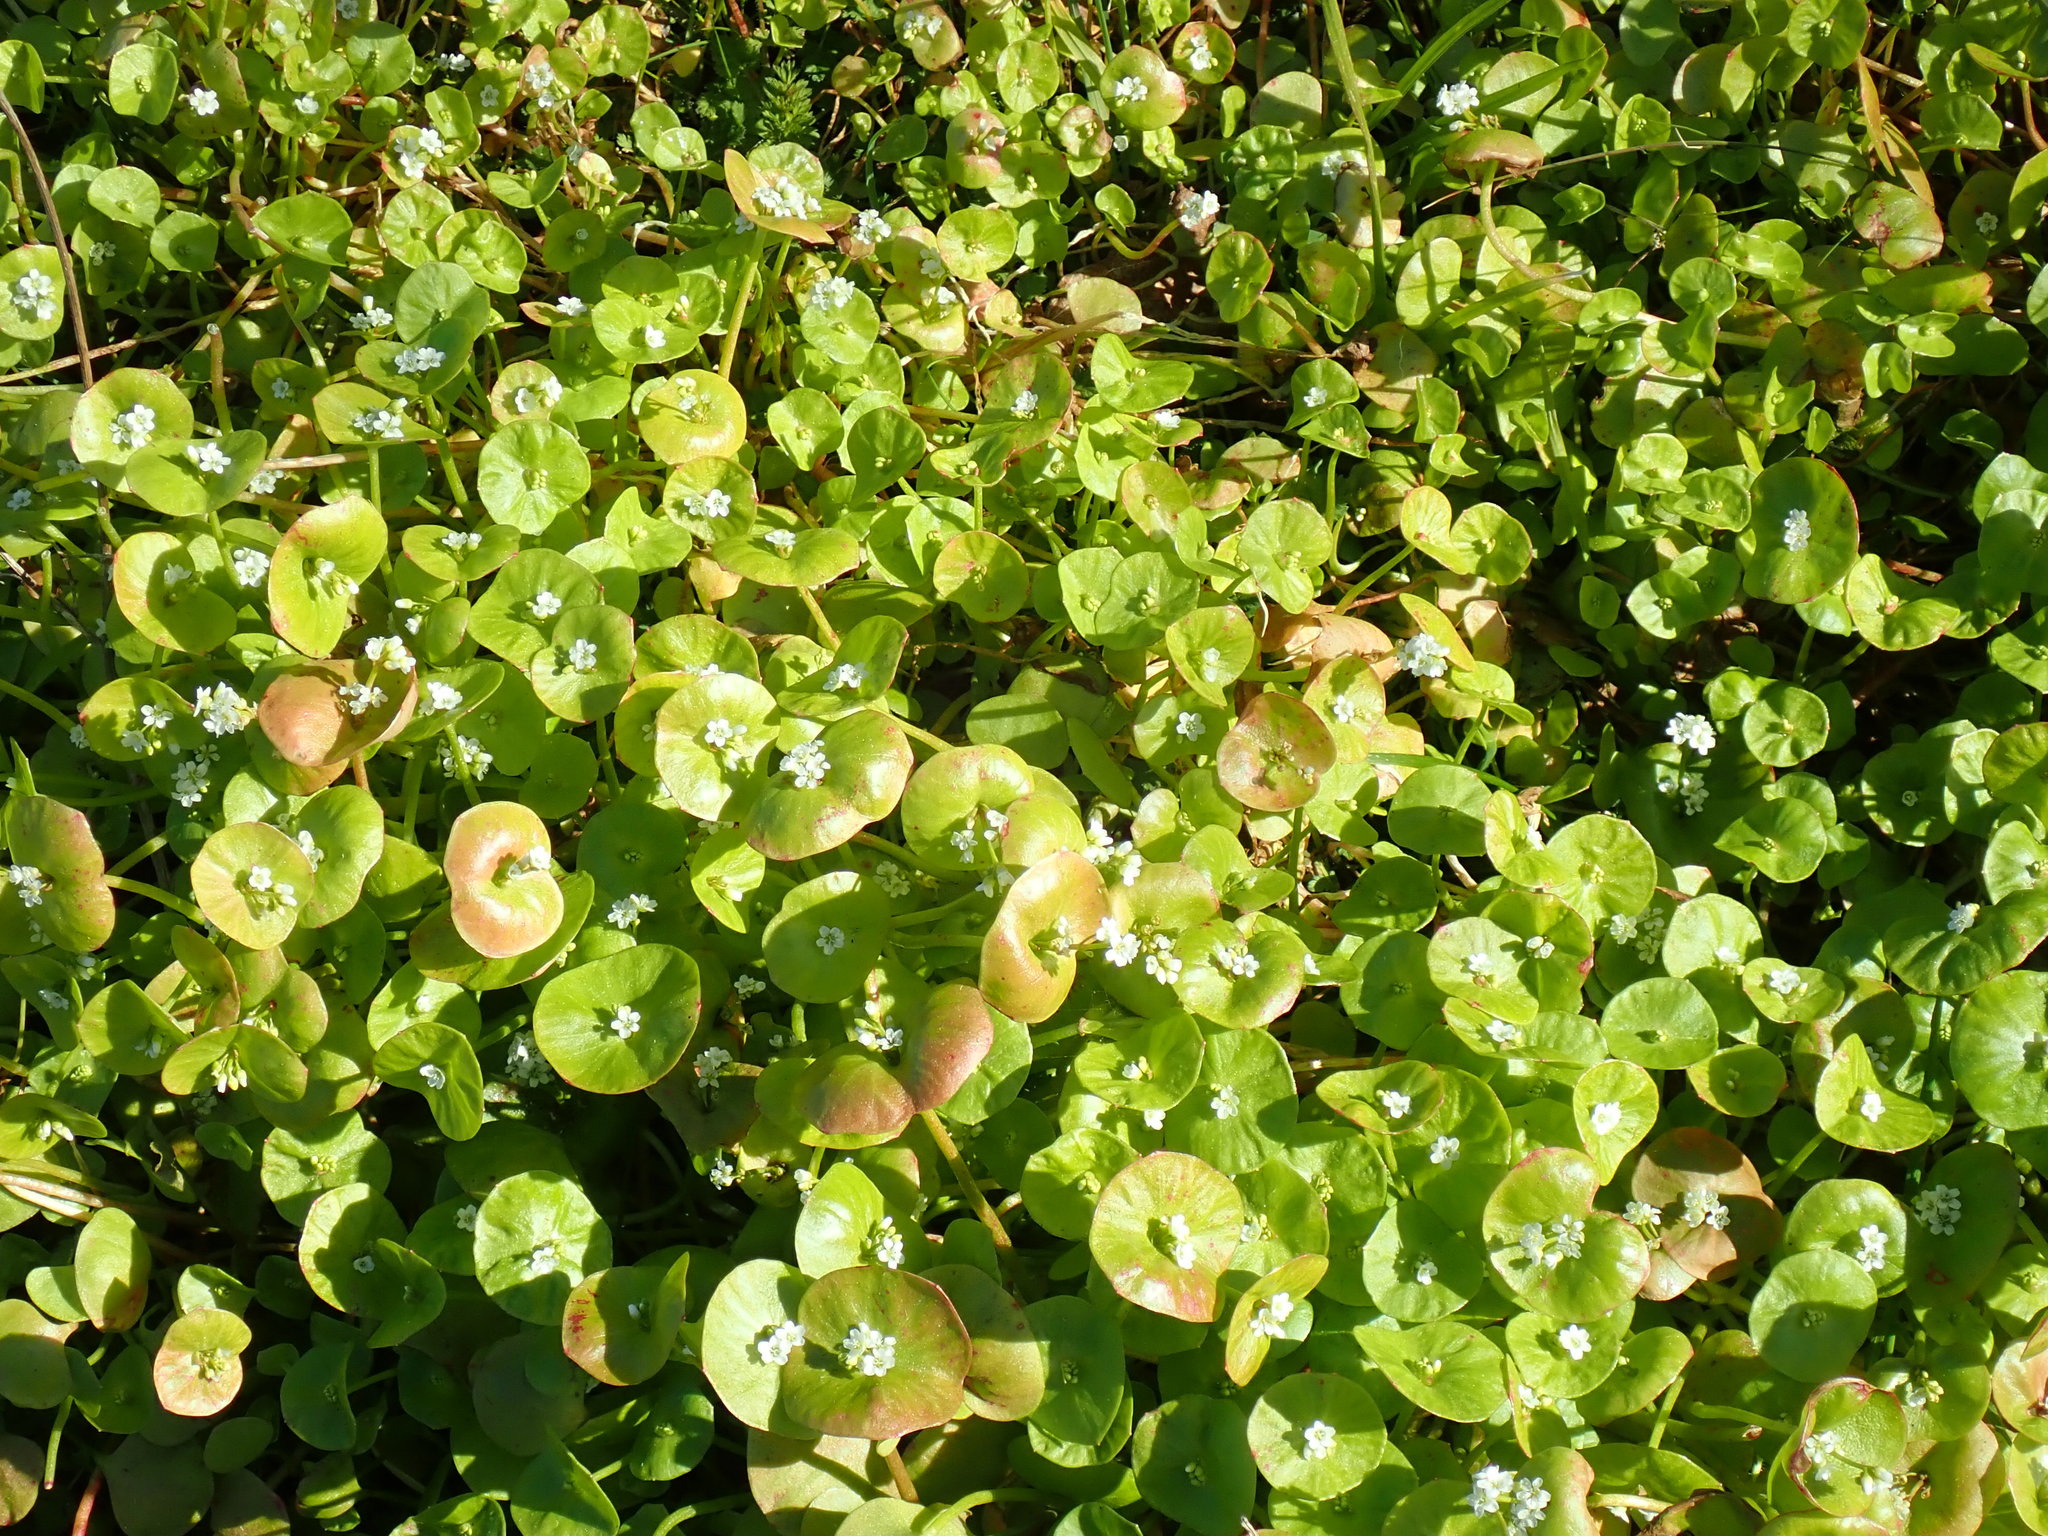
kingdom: Plantae
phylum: Tracheophyta
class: Magnoliopsida
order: Caryophyllales
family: Montiaceae
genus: Claytonia
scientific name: Claytonia perfoliata
